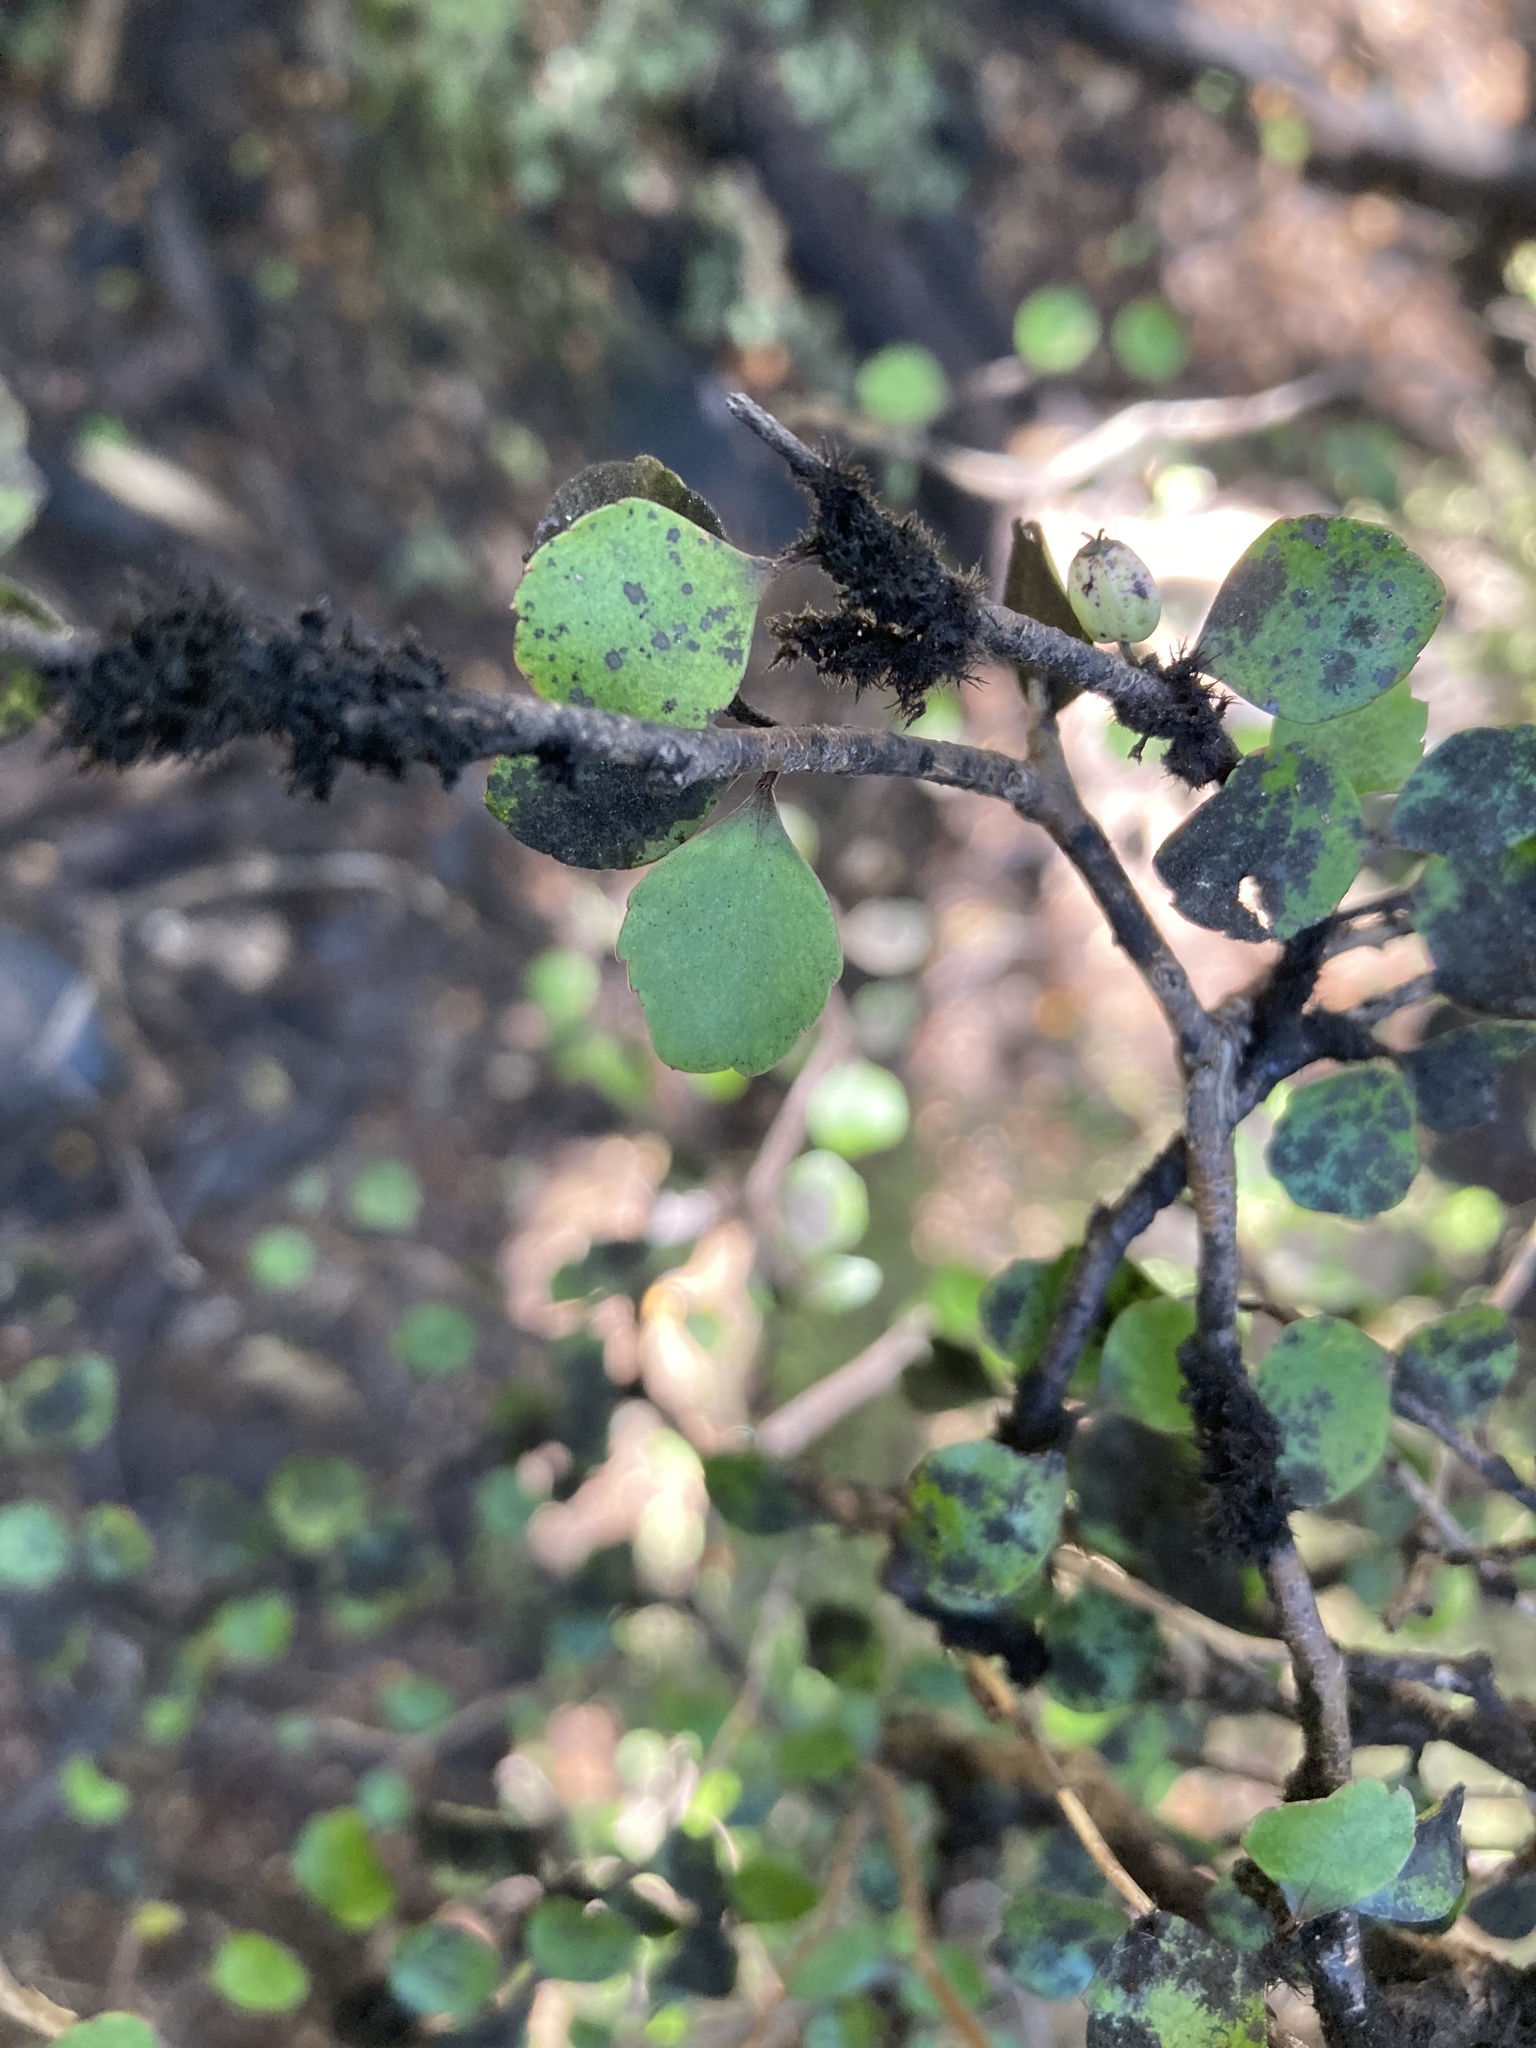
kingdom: Plantae
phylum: Tracheophyta
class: Magnoliopsida
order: Apiales
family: Araliaceae
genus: Raukaua
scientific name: Raukaua anomalus
